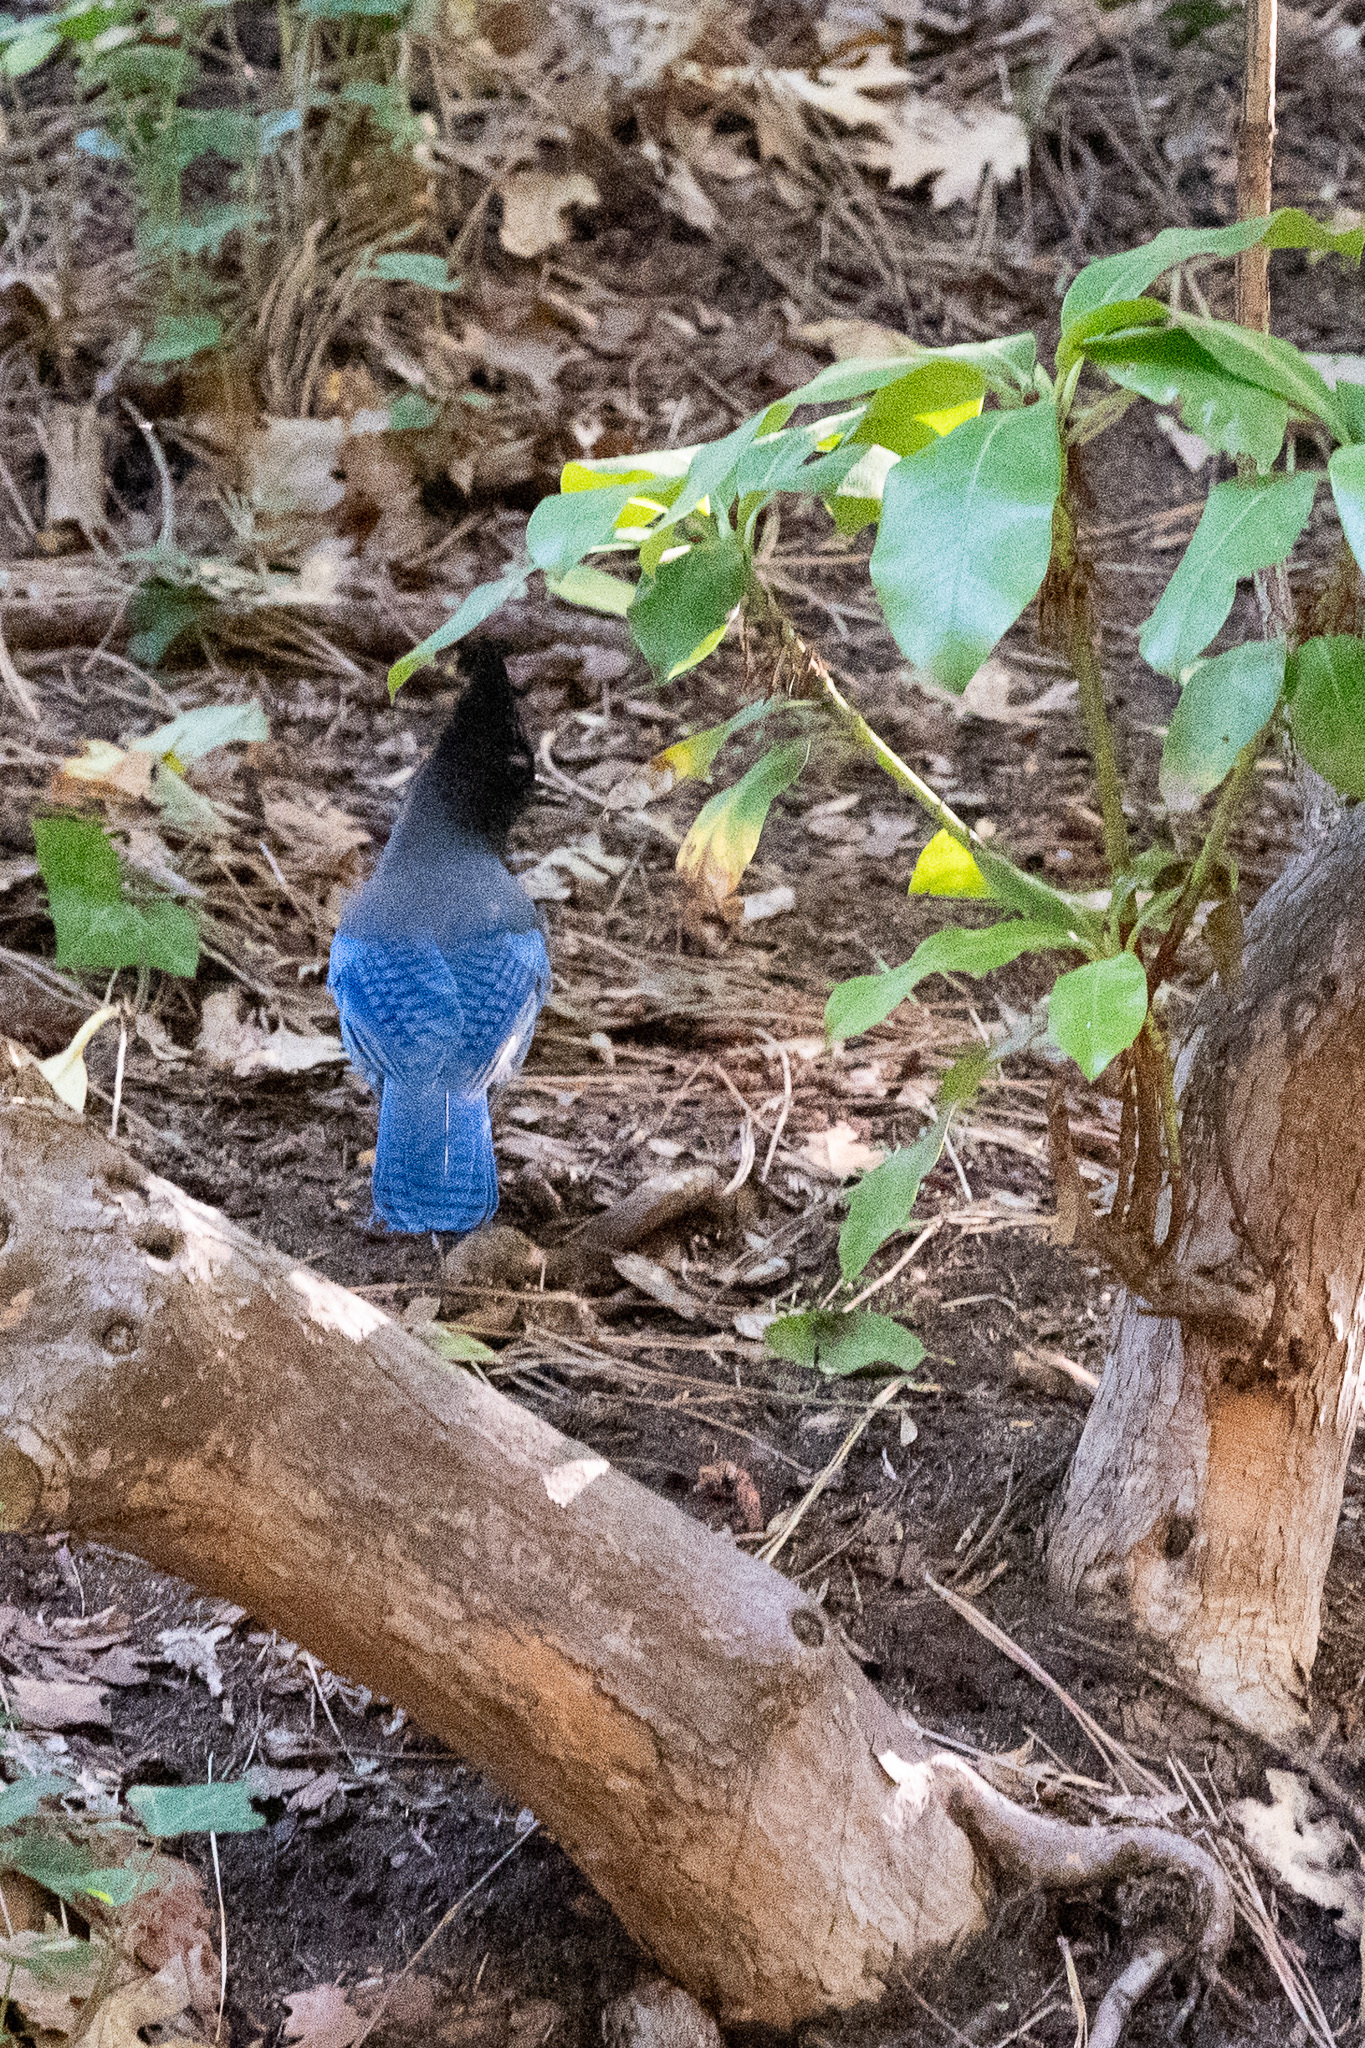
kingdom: Animalia
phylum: Chordata
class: Aves
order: Passeriformes
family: Corvidae
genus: Cyanocitta
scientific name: Cyanocitta stelleri
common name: Steller's jay
